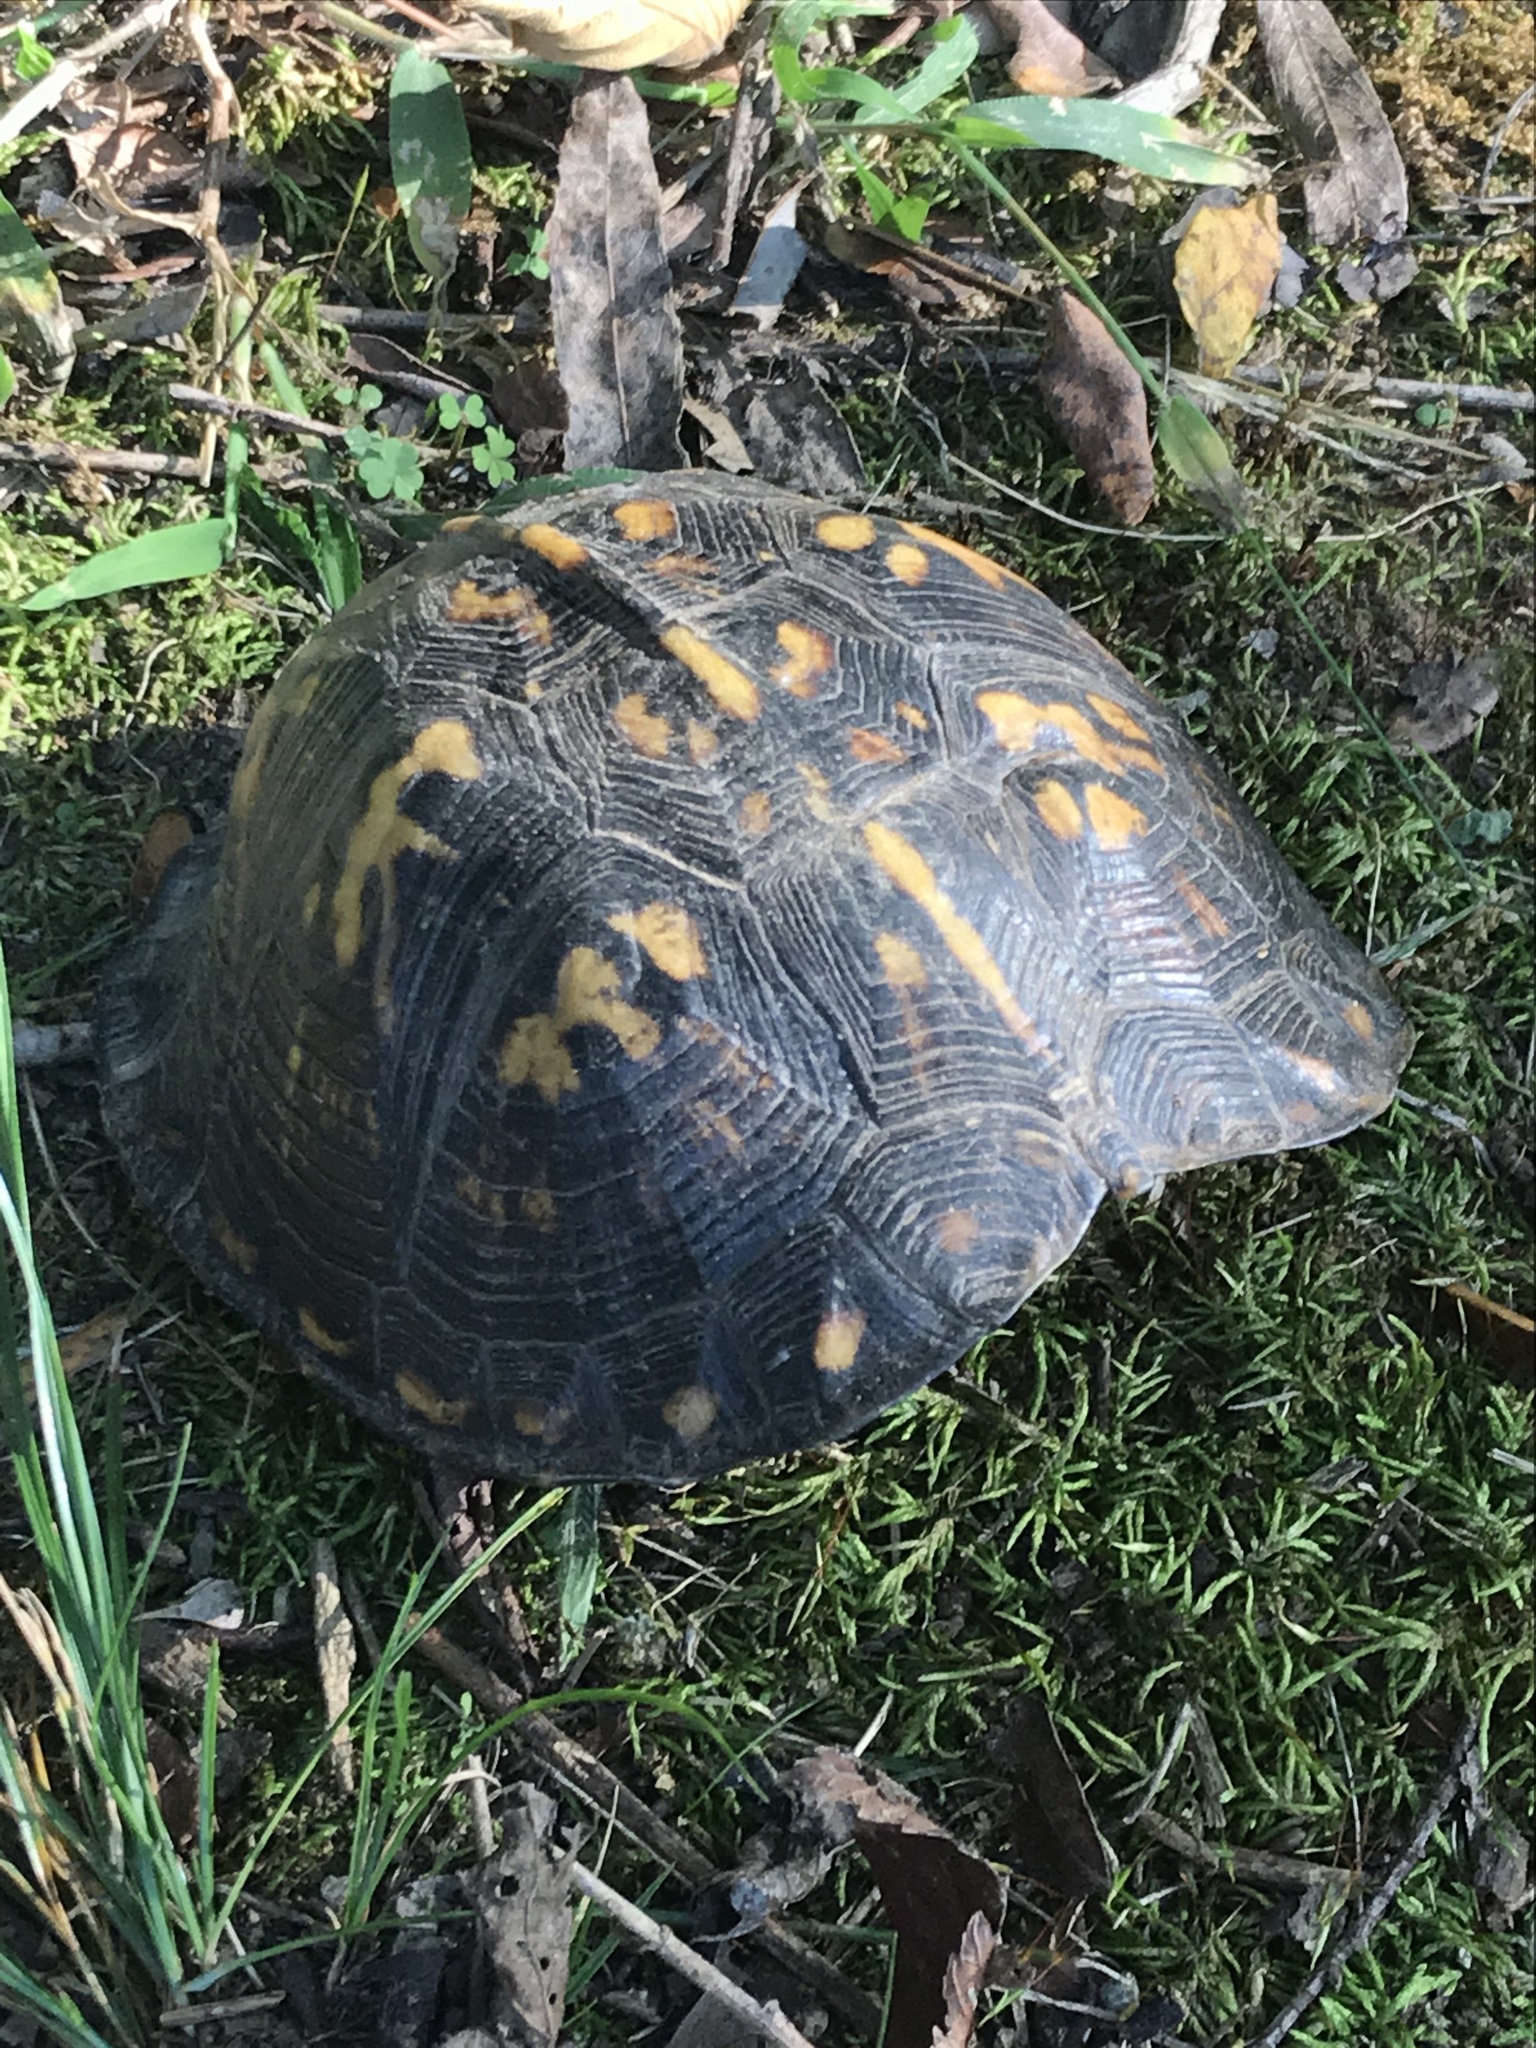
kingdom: Animalia
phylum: Chordata
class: Testudines
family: Emydidae
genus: Terrapene
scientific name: Terrapene carolina
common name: Common box turtle
